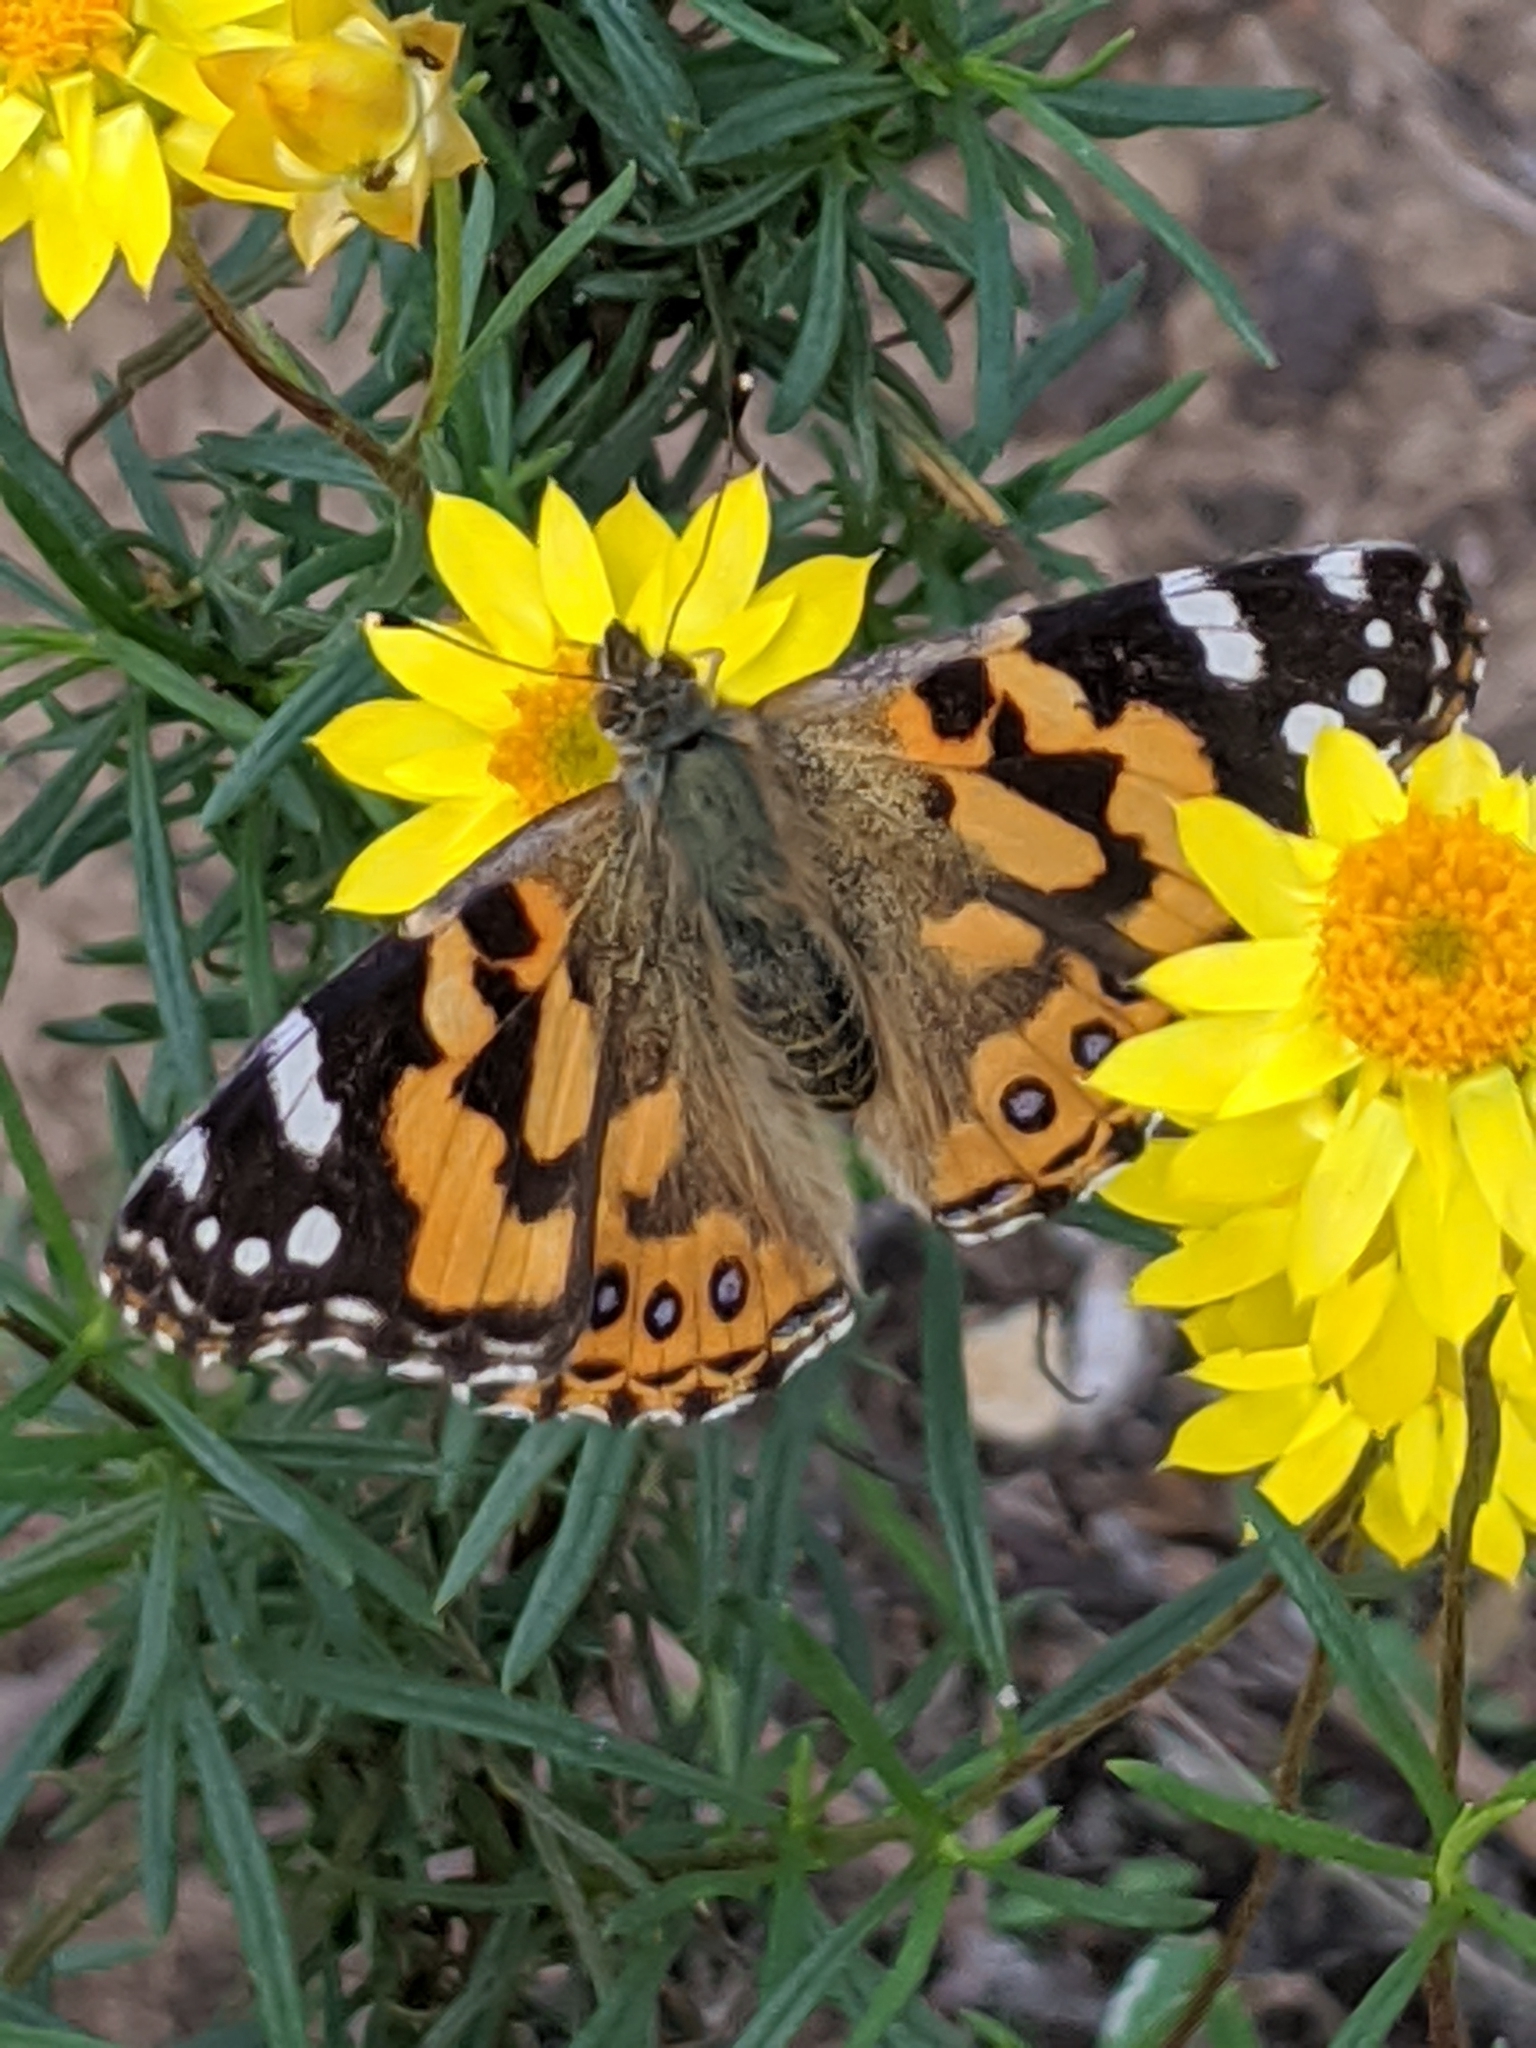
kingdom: Animalia
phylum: Arthropoda
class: Insecta
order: Lepidoptera
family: Nymphalidae
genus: Vanessa
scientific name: Vanessa kershawi
